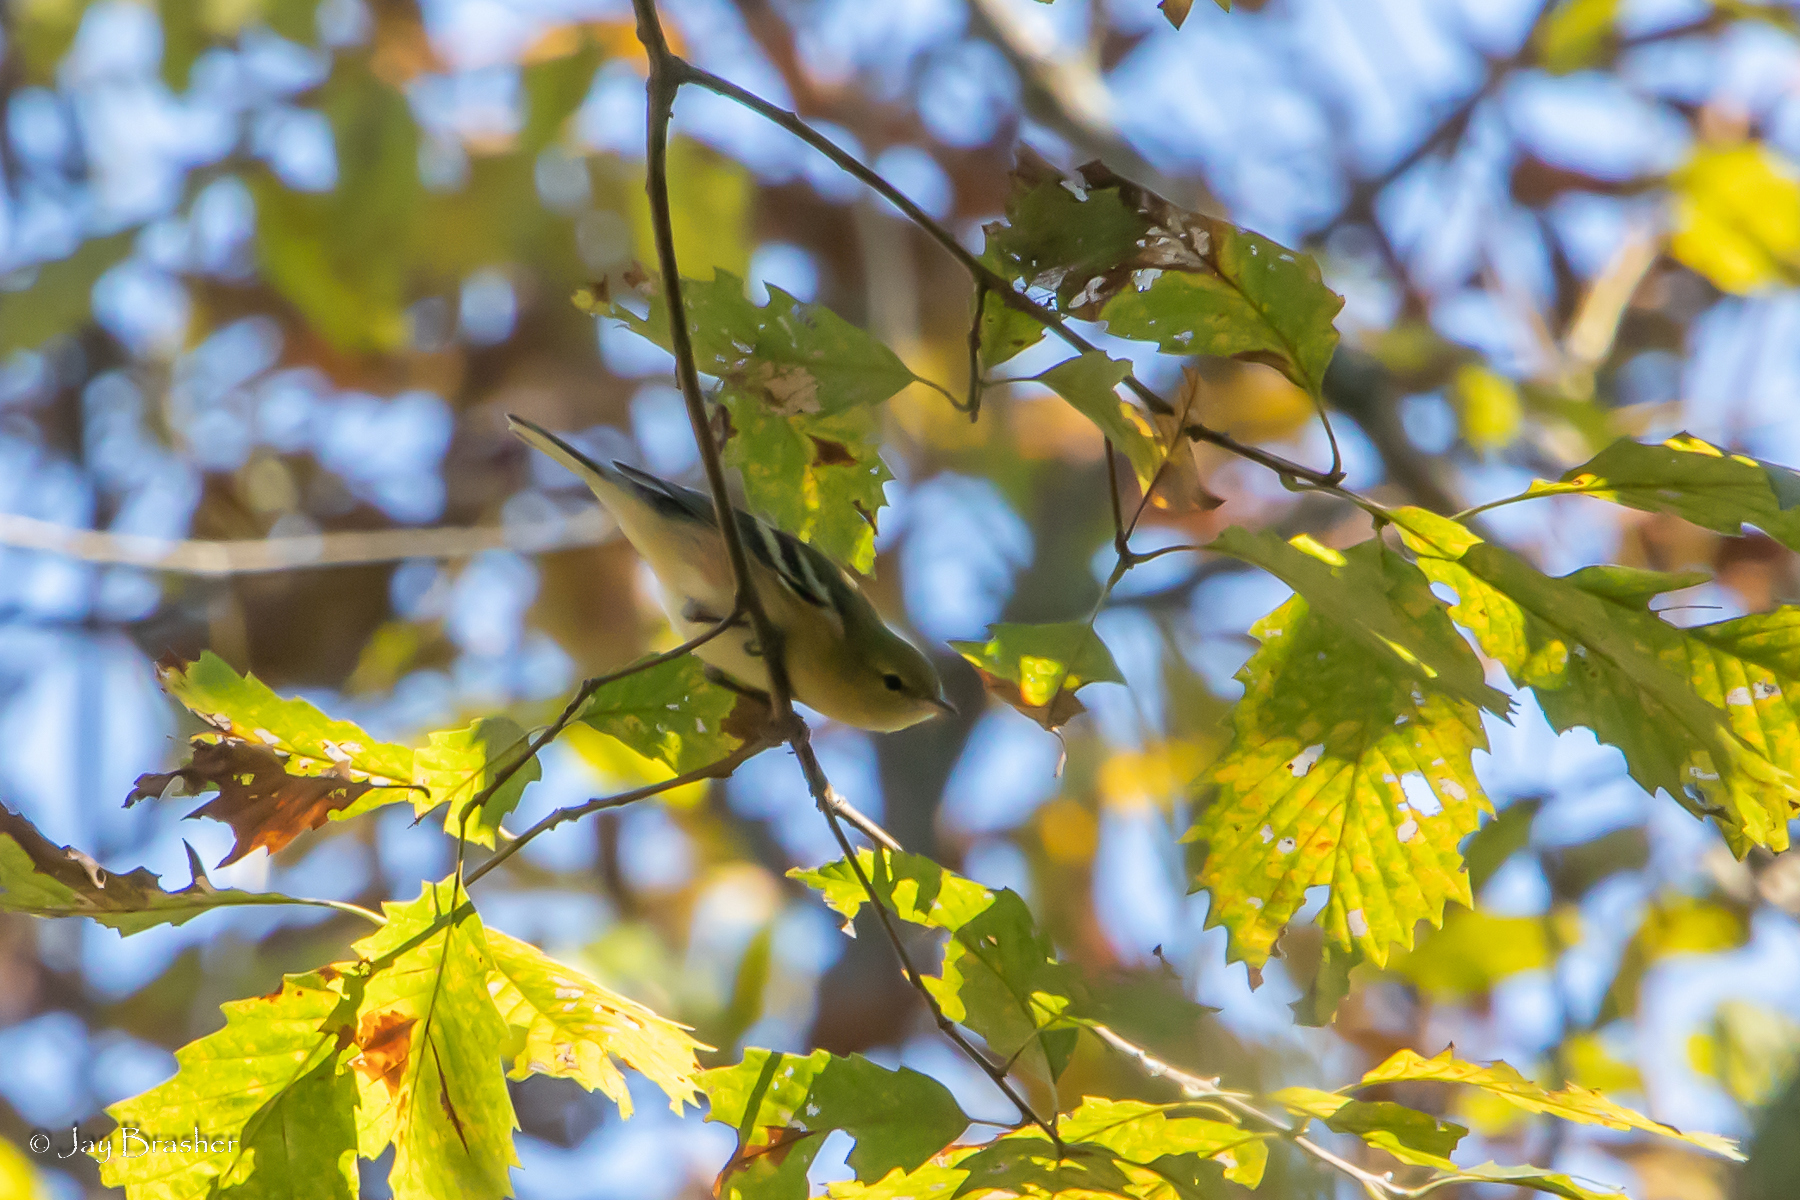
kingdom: Animalia
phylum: Chordata
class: Aves
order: Passeriformes
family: Parulidae
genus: Setophaga
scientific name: Setophaga castanea
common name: Bay-breasted warbler
